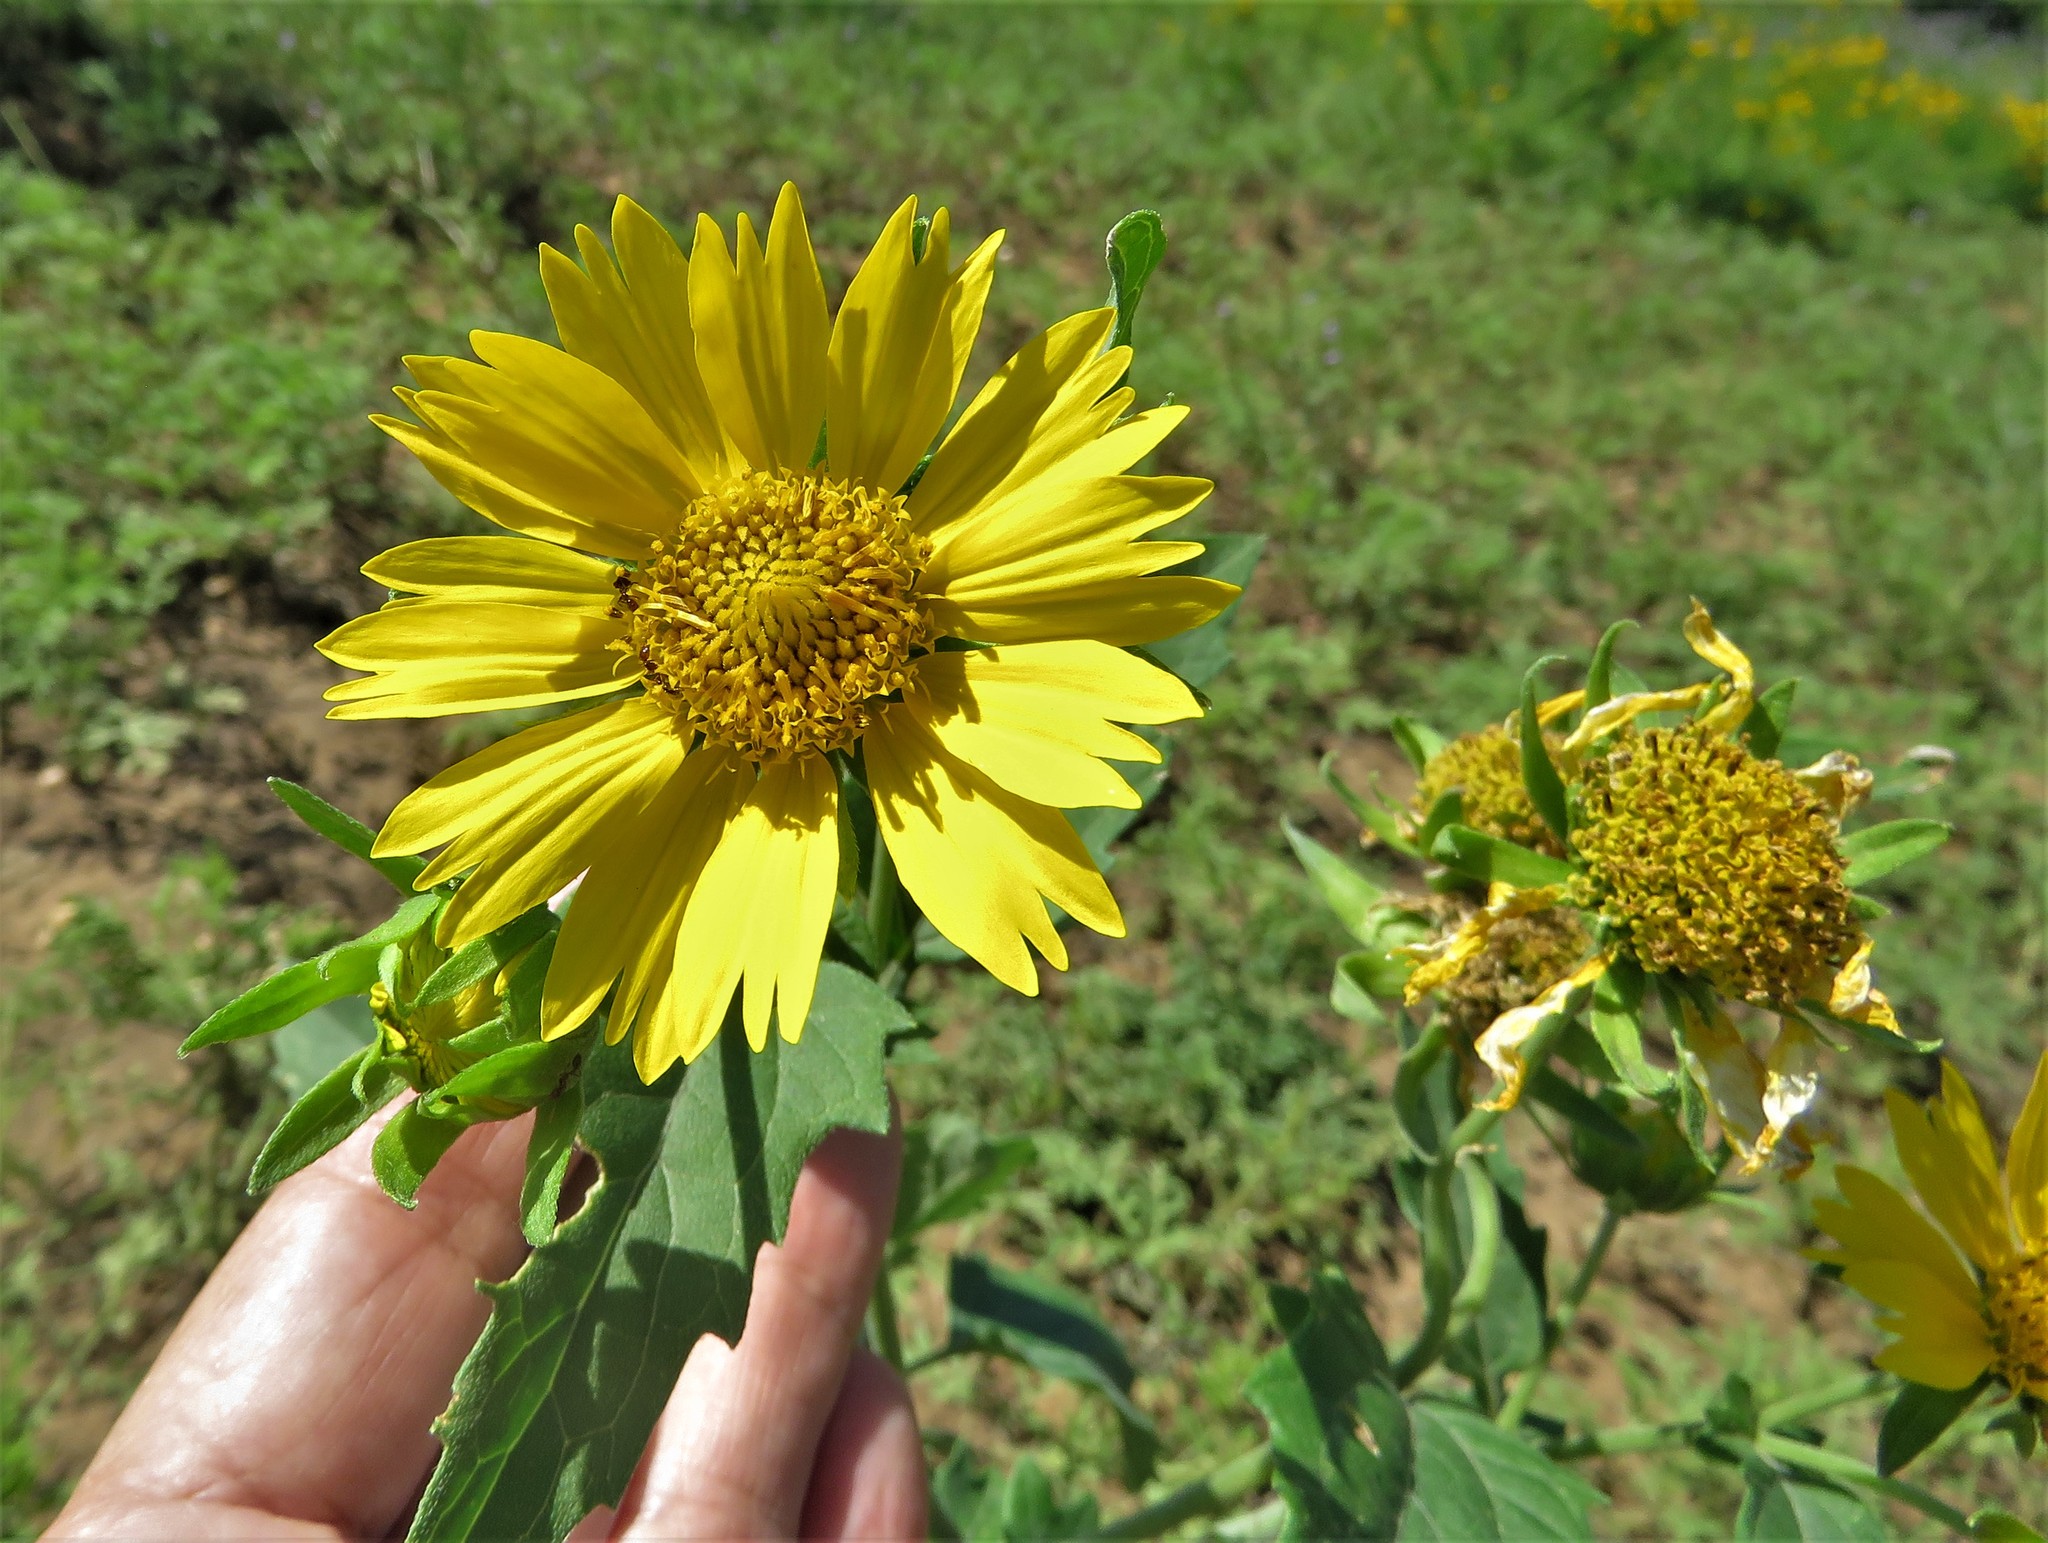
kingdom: Plantae
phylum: Tracheophyta
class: Magnoliopsida
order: Asterales
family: Asteraceae
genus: Verbesina
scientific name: Verbesina encelioides
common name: Golden crownbeard
